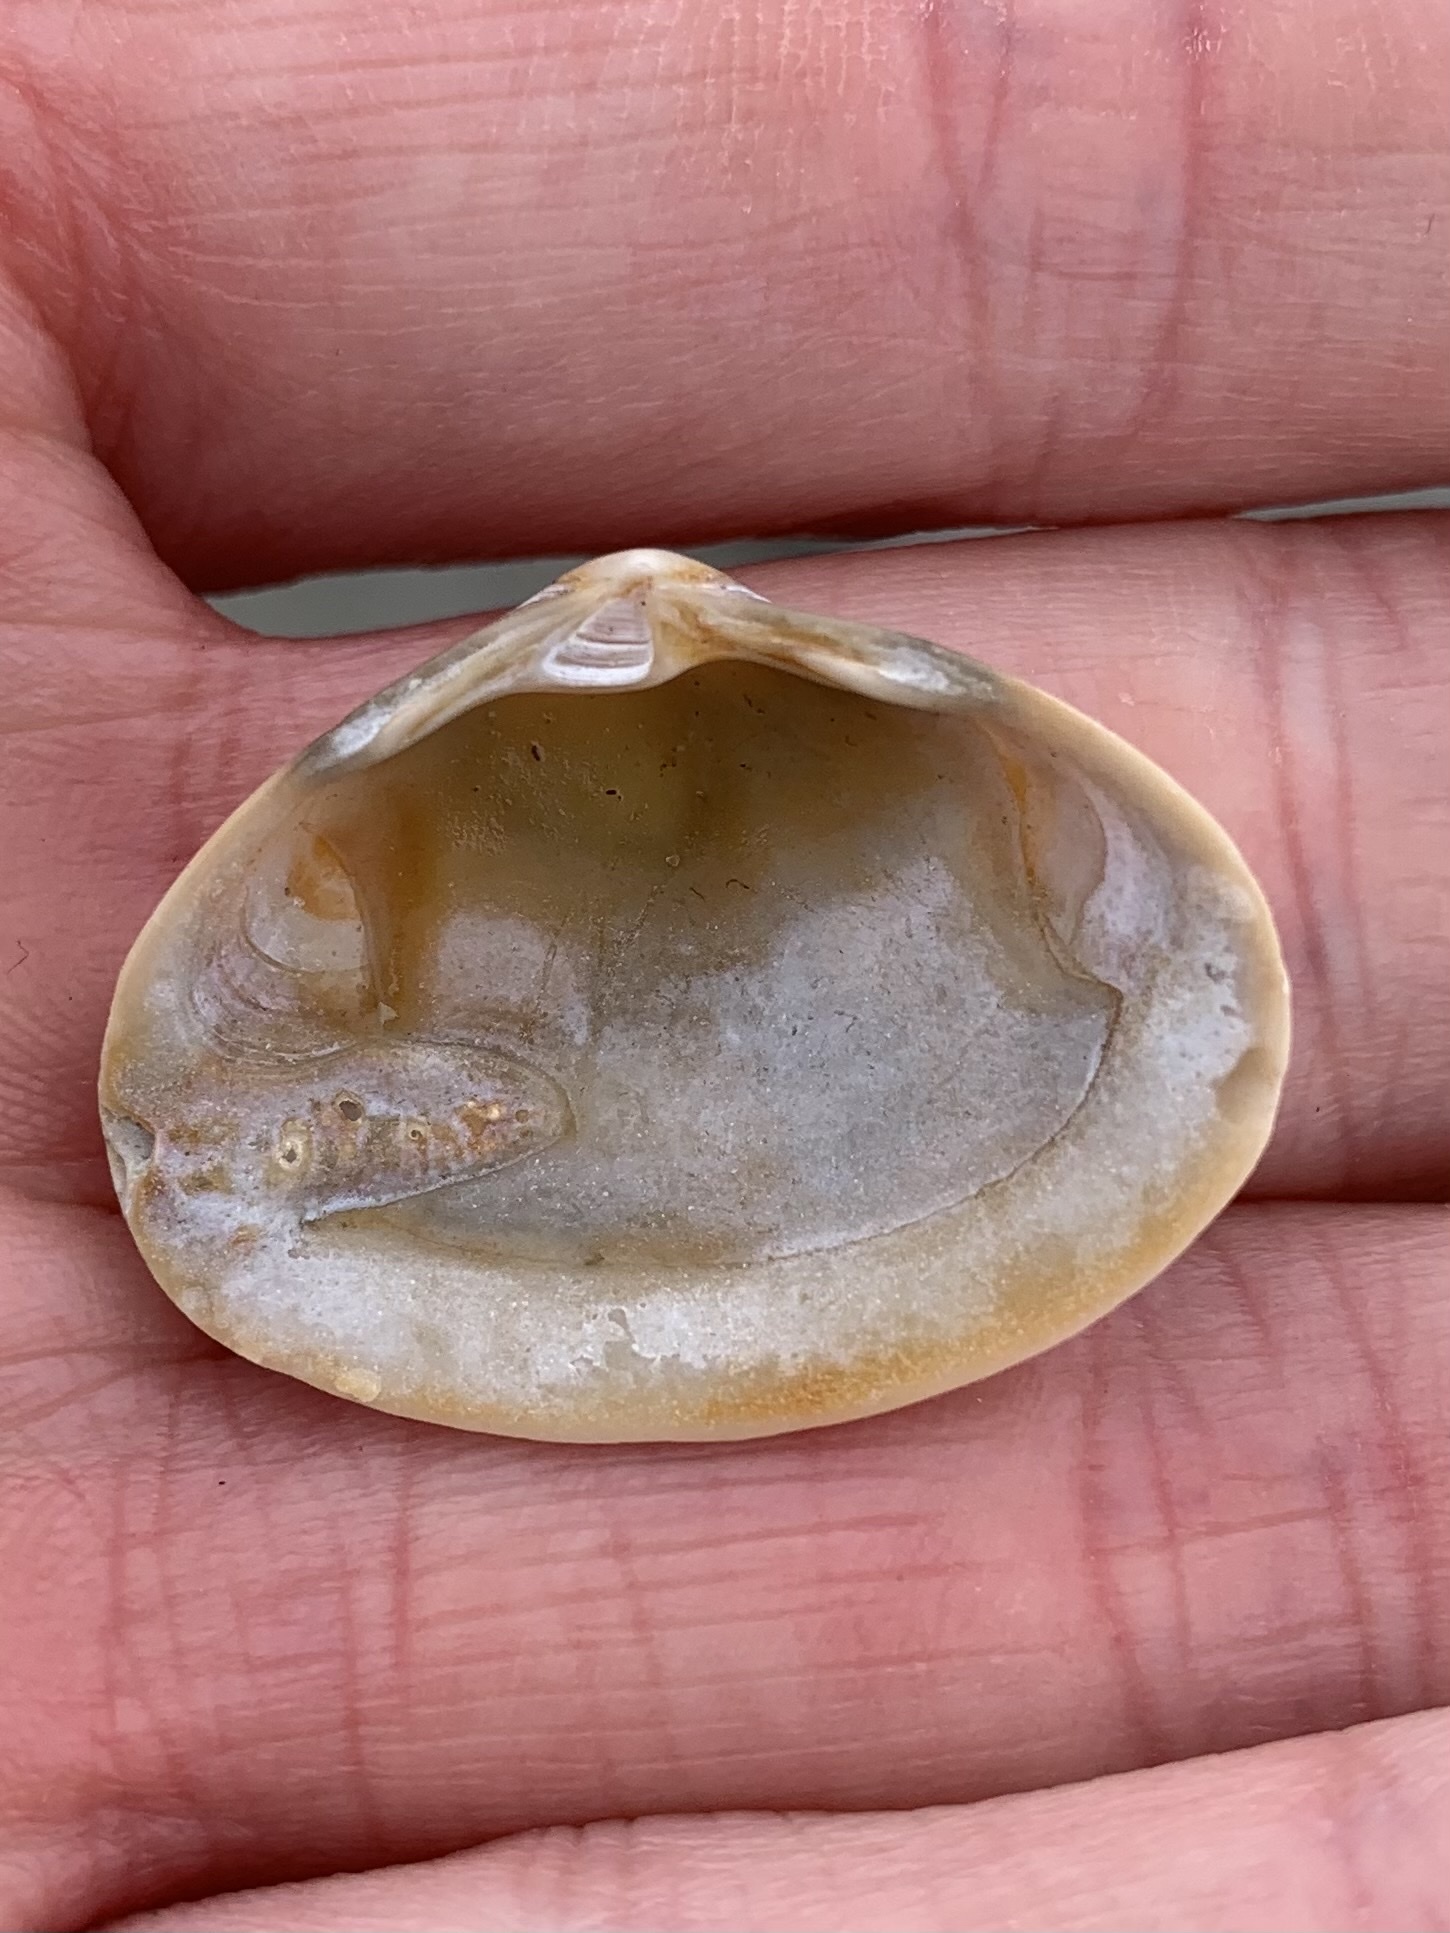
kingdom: Animalia
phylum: Mollusca
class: Bivalvia
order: Venerida
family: Mactridae
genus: Spisula
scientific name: Spisula solida
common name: Thick trough shell
